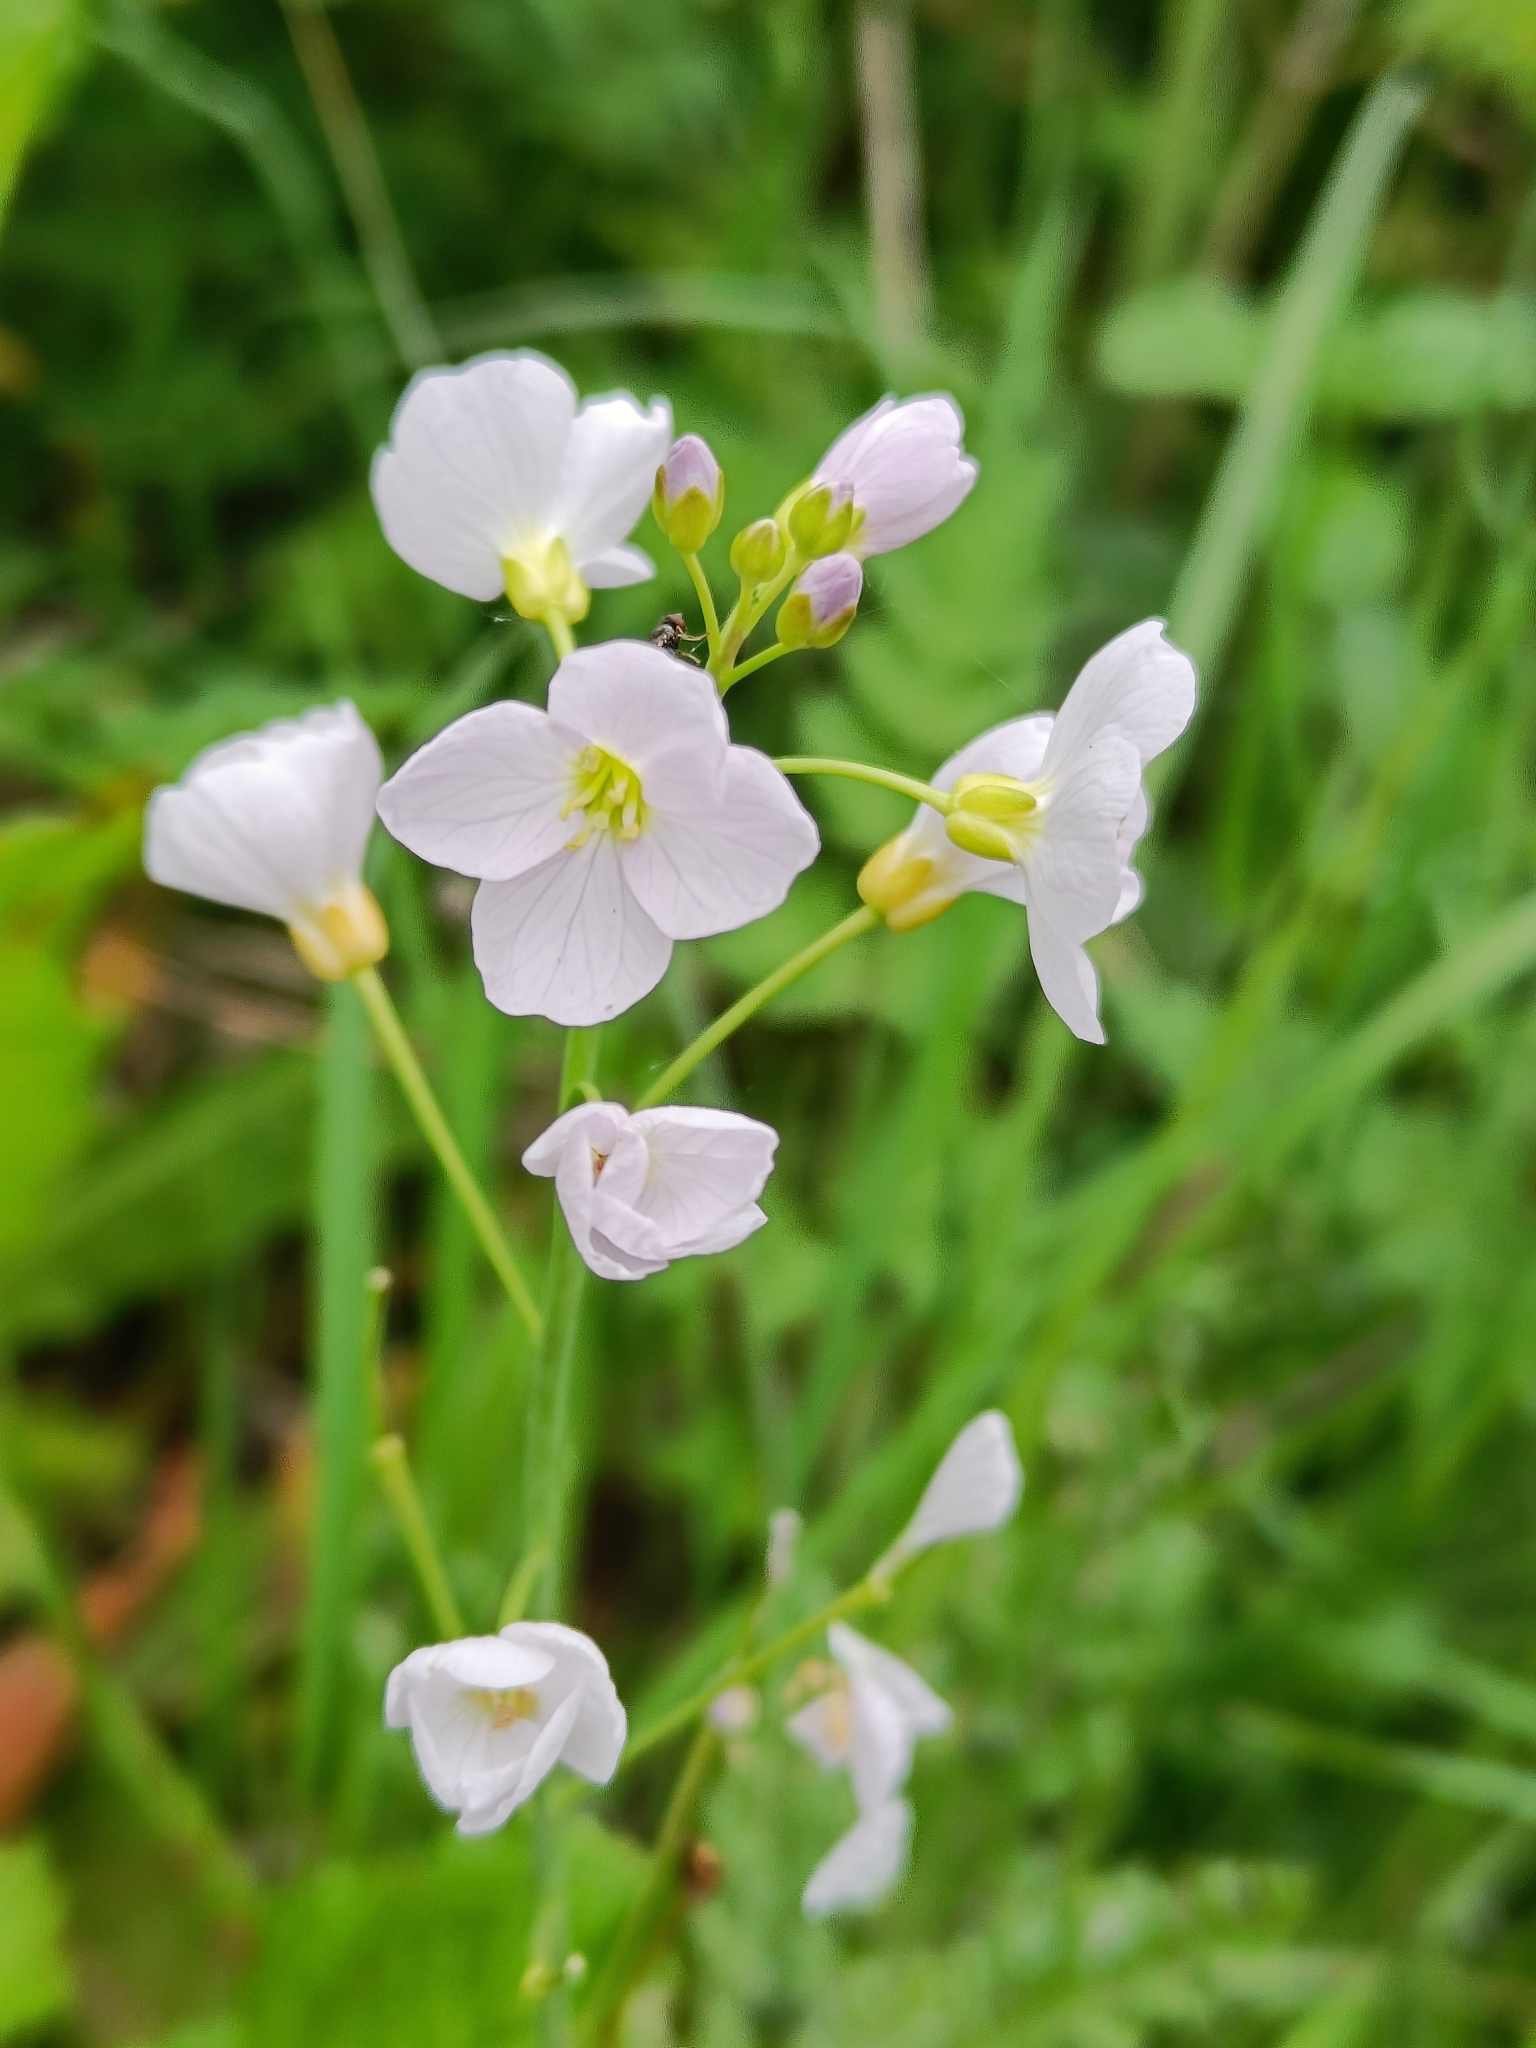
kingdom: Plantae
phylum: Tracheophyta
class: Magnoliopsida
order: Brassicales
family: Brassicaceae
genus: Cardamine
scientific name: Cardamine pratensis
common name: Cuckoo flower
